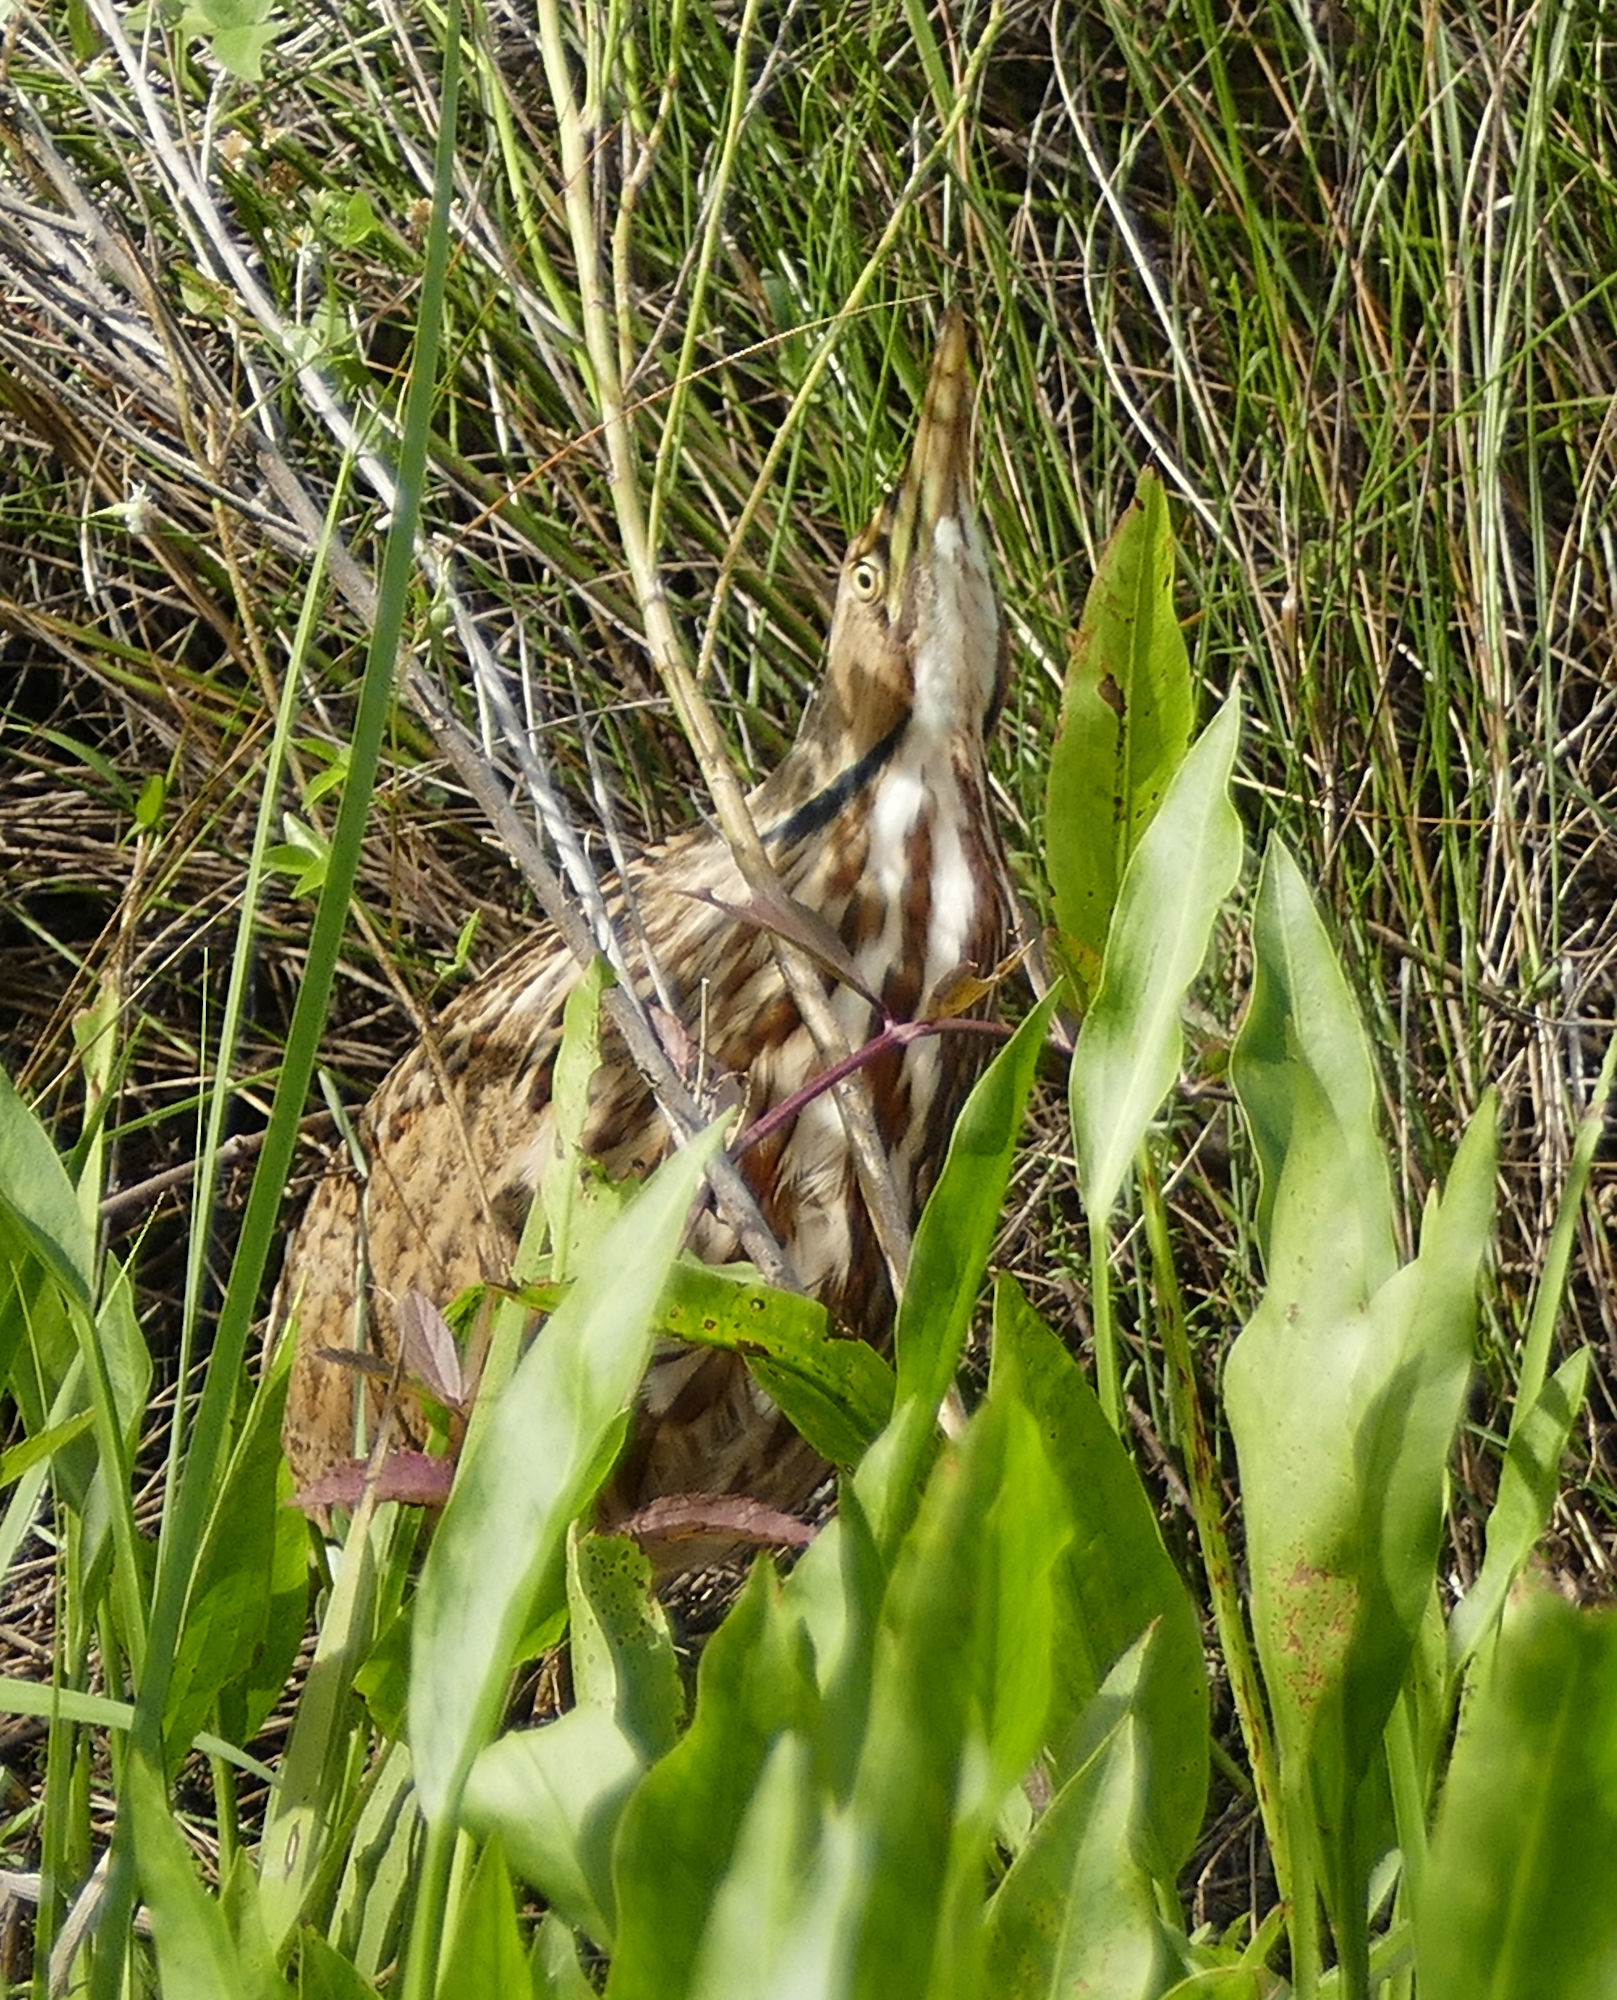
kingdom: Animalia
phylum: Chordata
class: Aves
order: Pelecaniformes
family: Ardeidae
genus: Botaurus
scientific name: Botaurus lentiginosus
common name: American bittern
